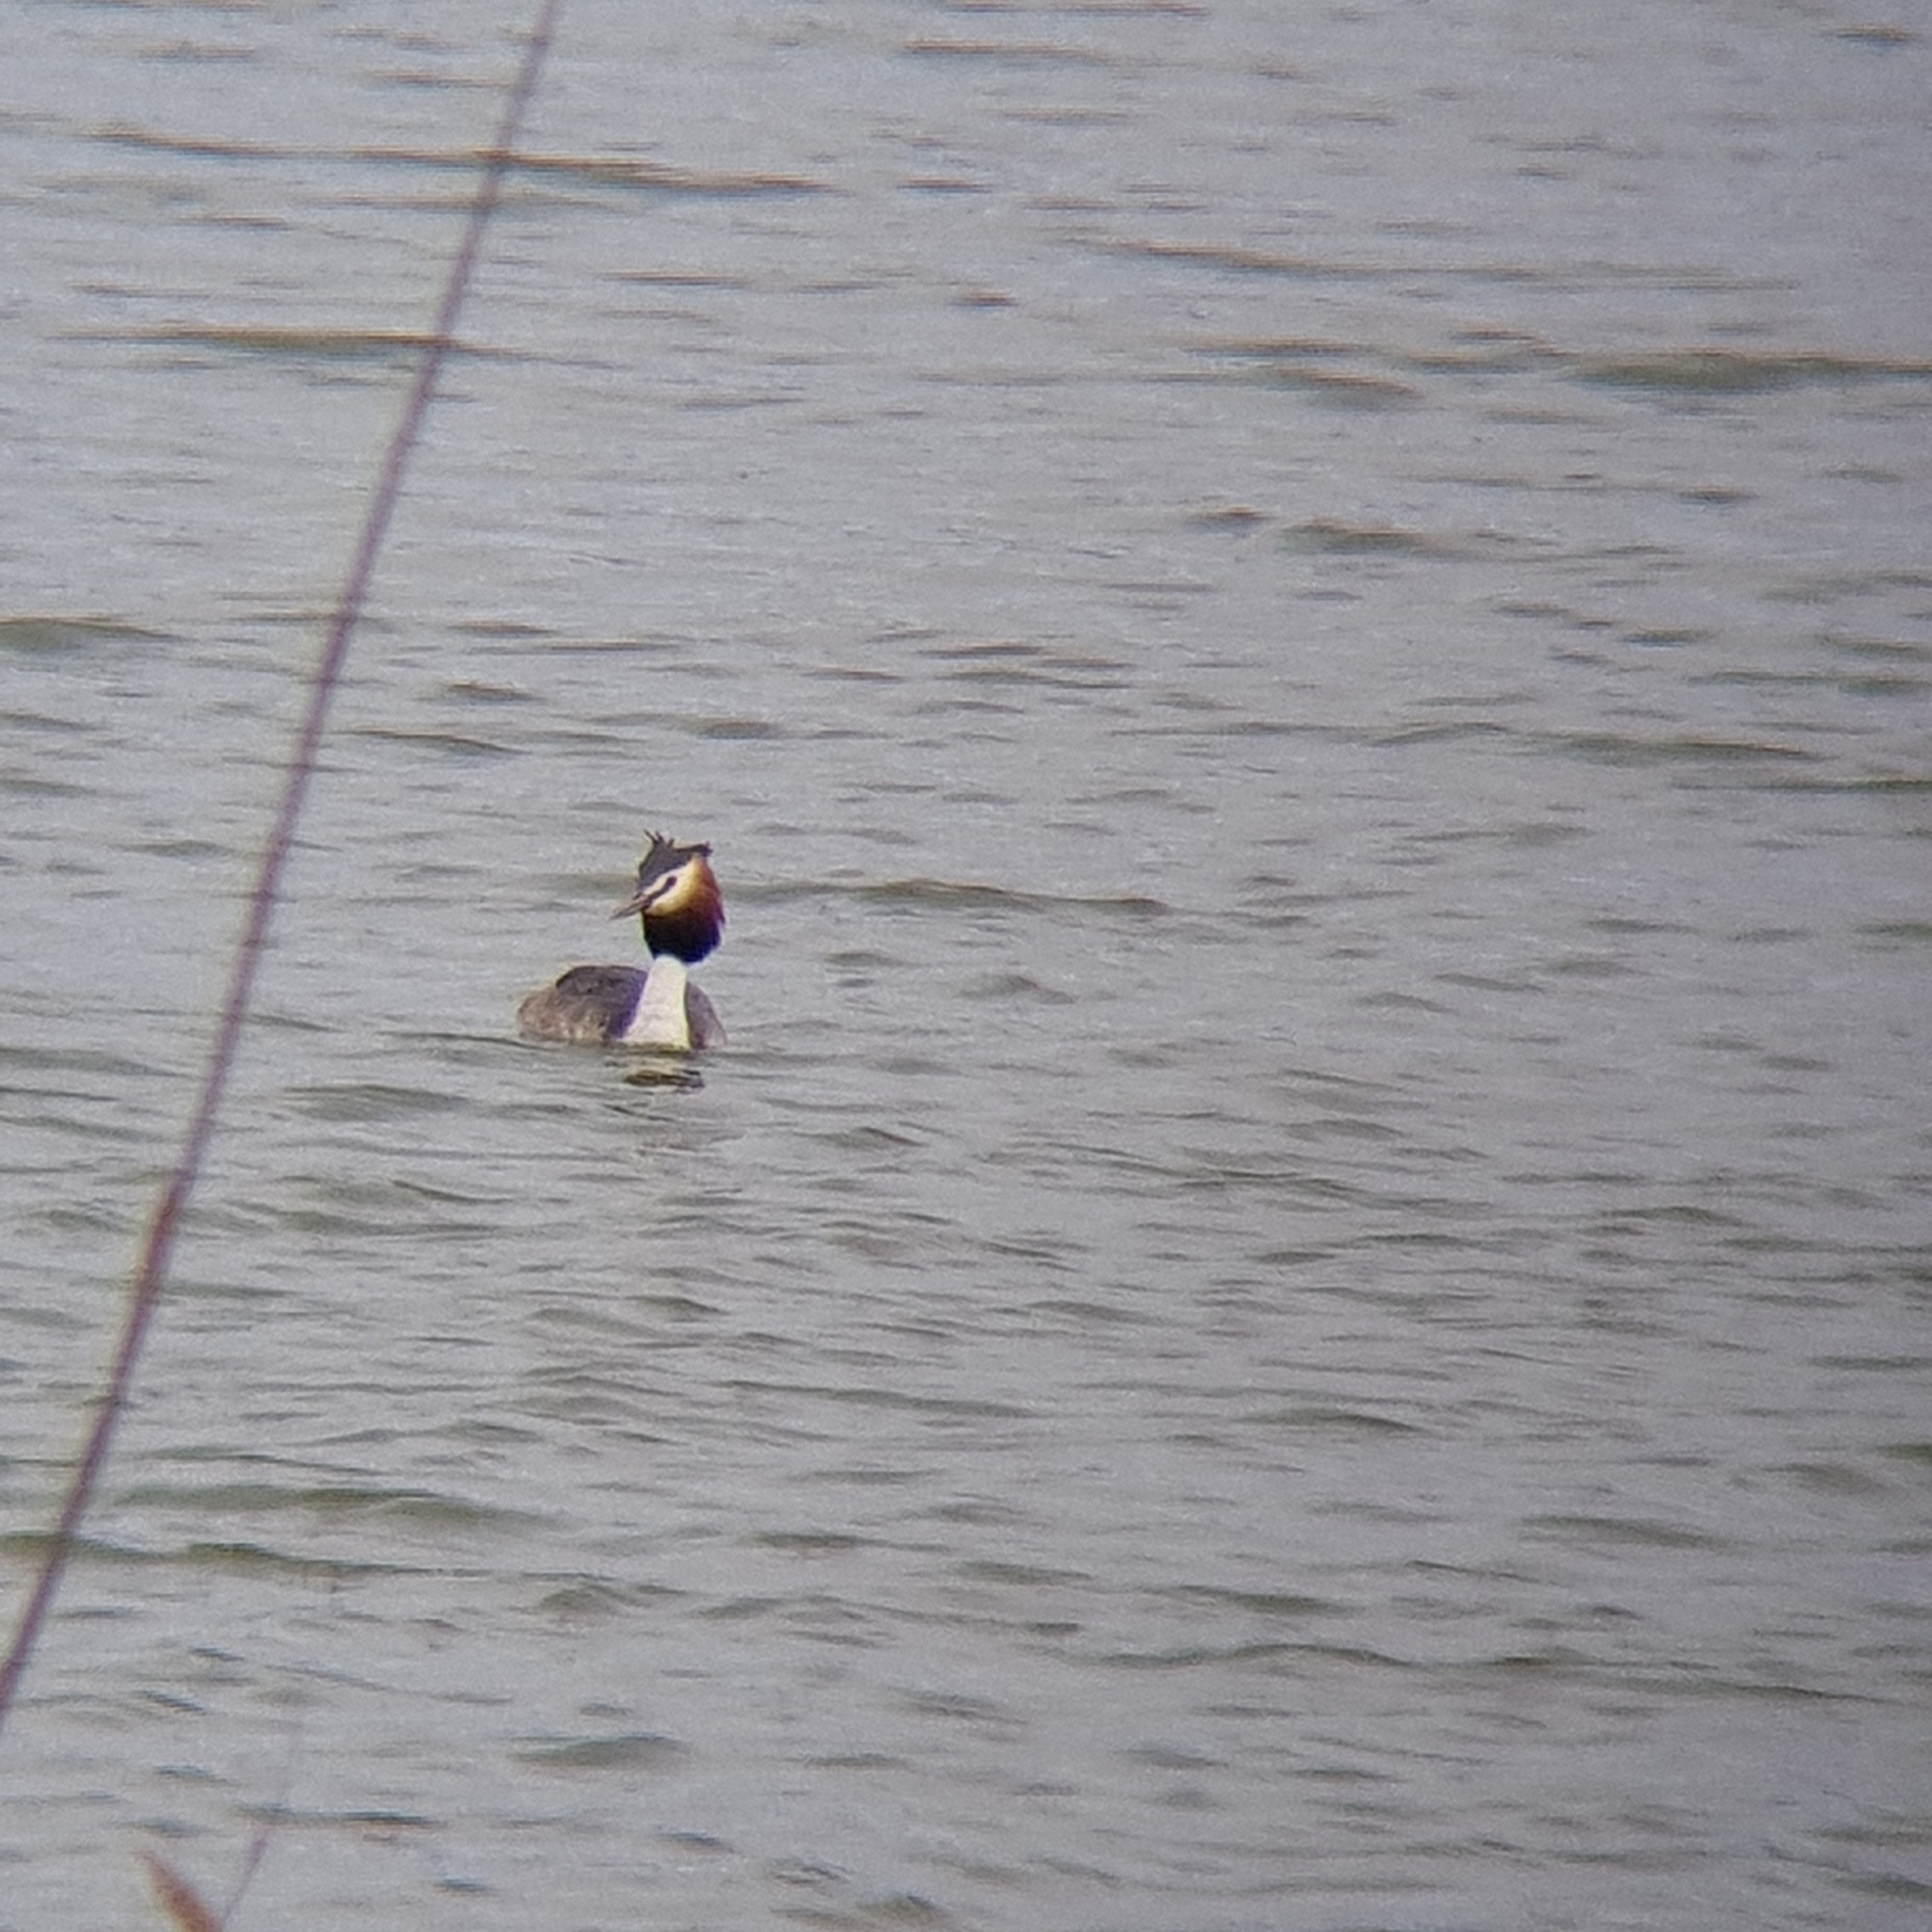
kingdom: Animalia
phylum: Chordata
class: Aves
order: Podicipediformes
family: Podicipedidae
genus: Podiceps
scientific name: Podiceps cristatus
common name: Great crested grebe
